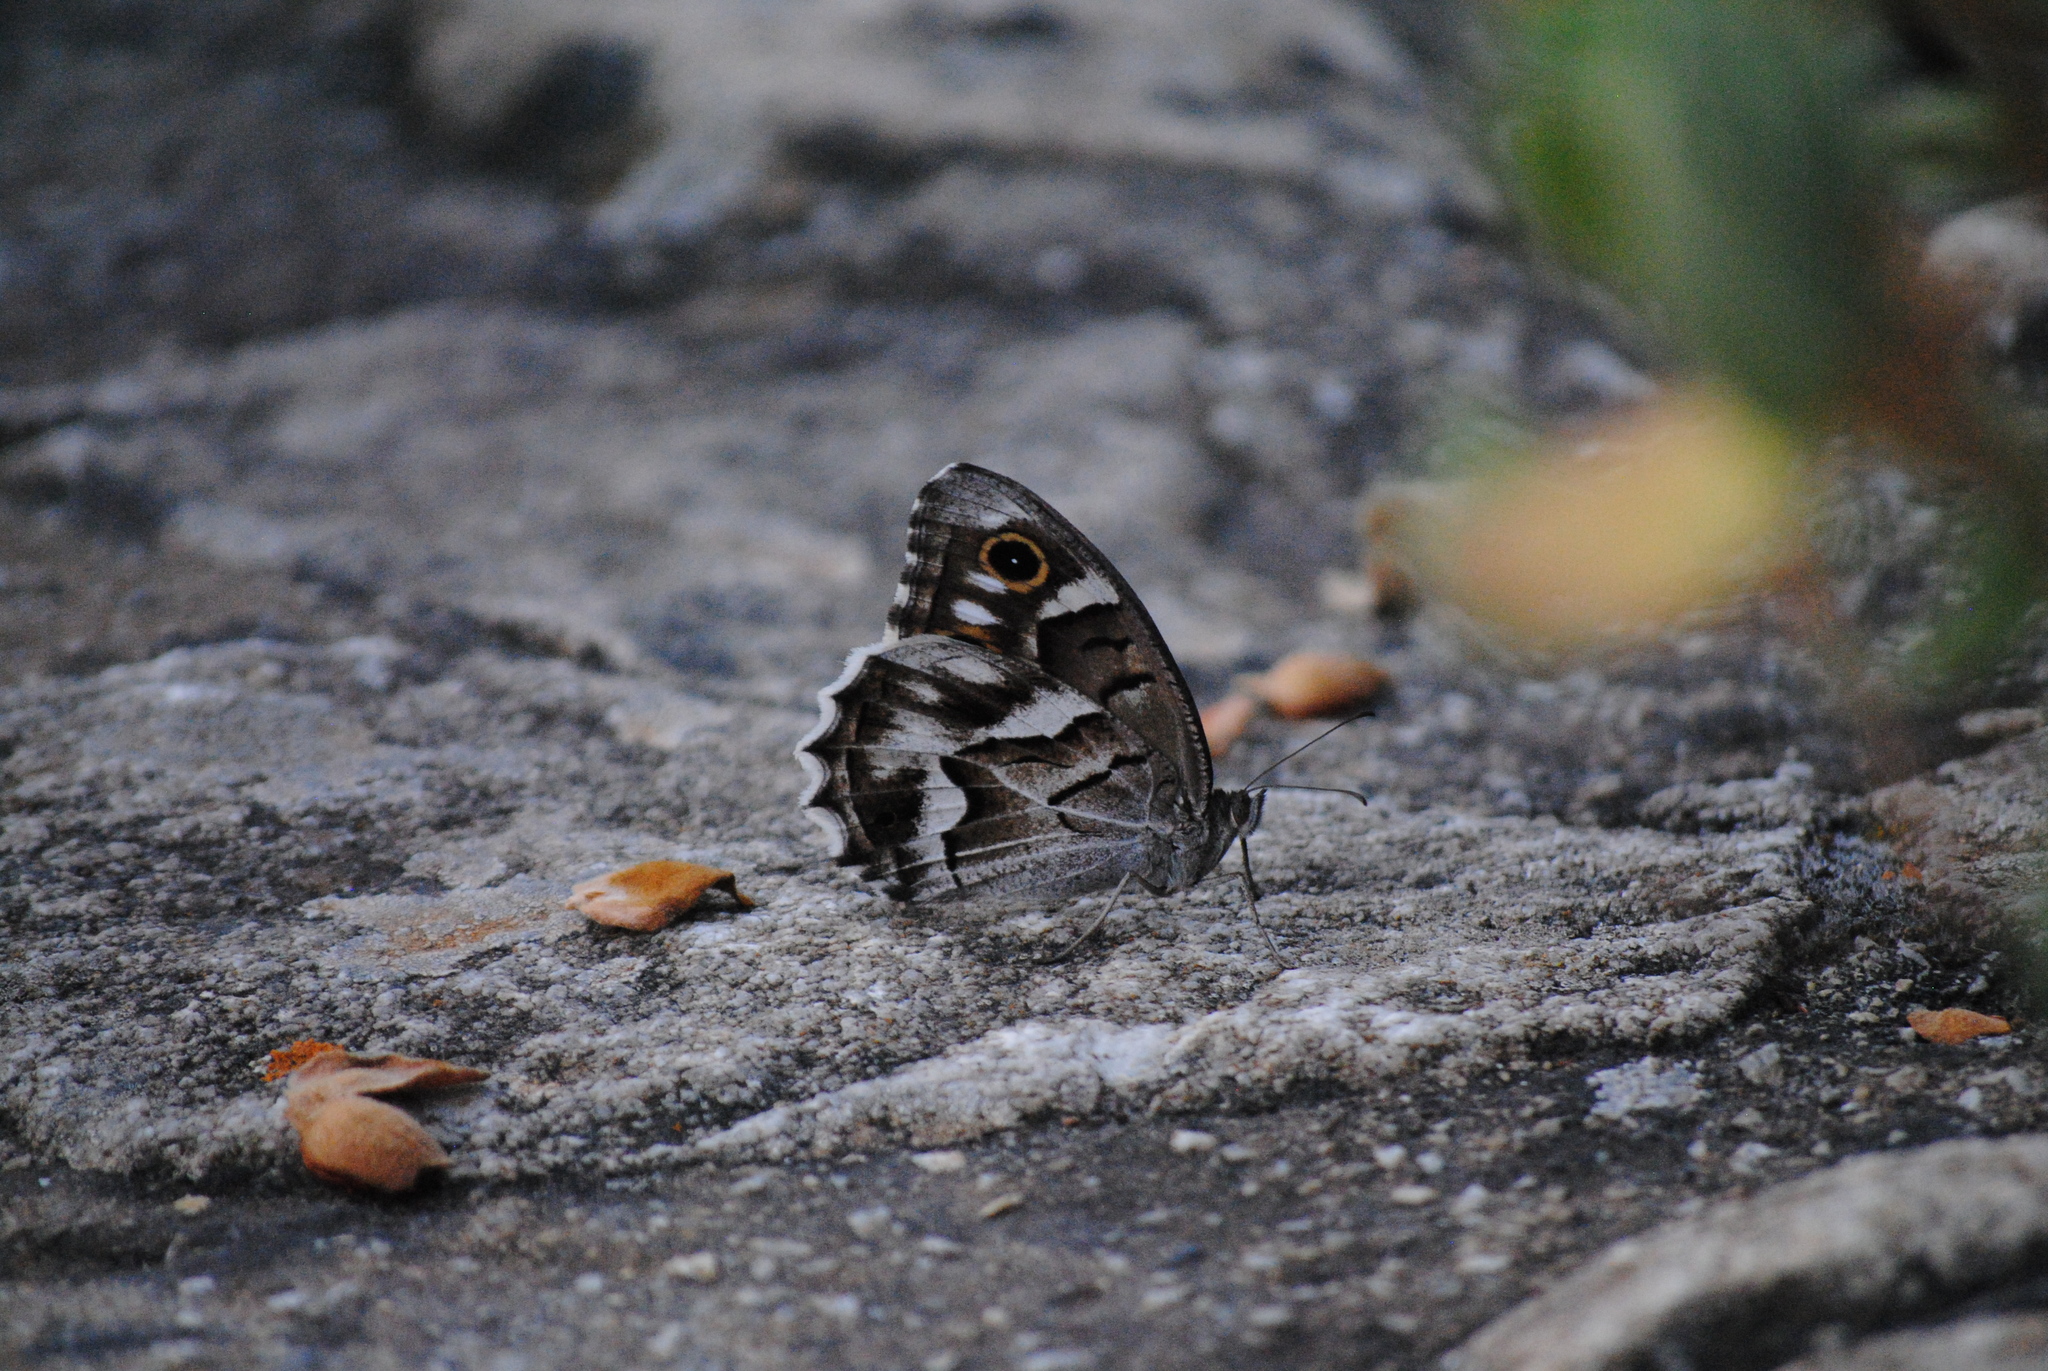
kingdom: Animalia
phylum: Arthropoda
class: Insecta
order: Lepidoptera
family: Nymphalidae
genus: Hipparchia
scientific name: Hipparchia fidia
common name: Striped grayling
